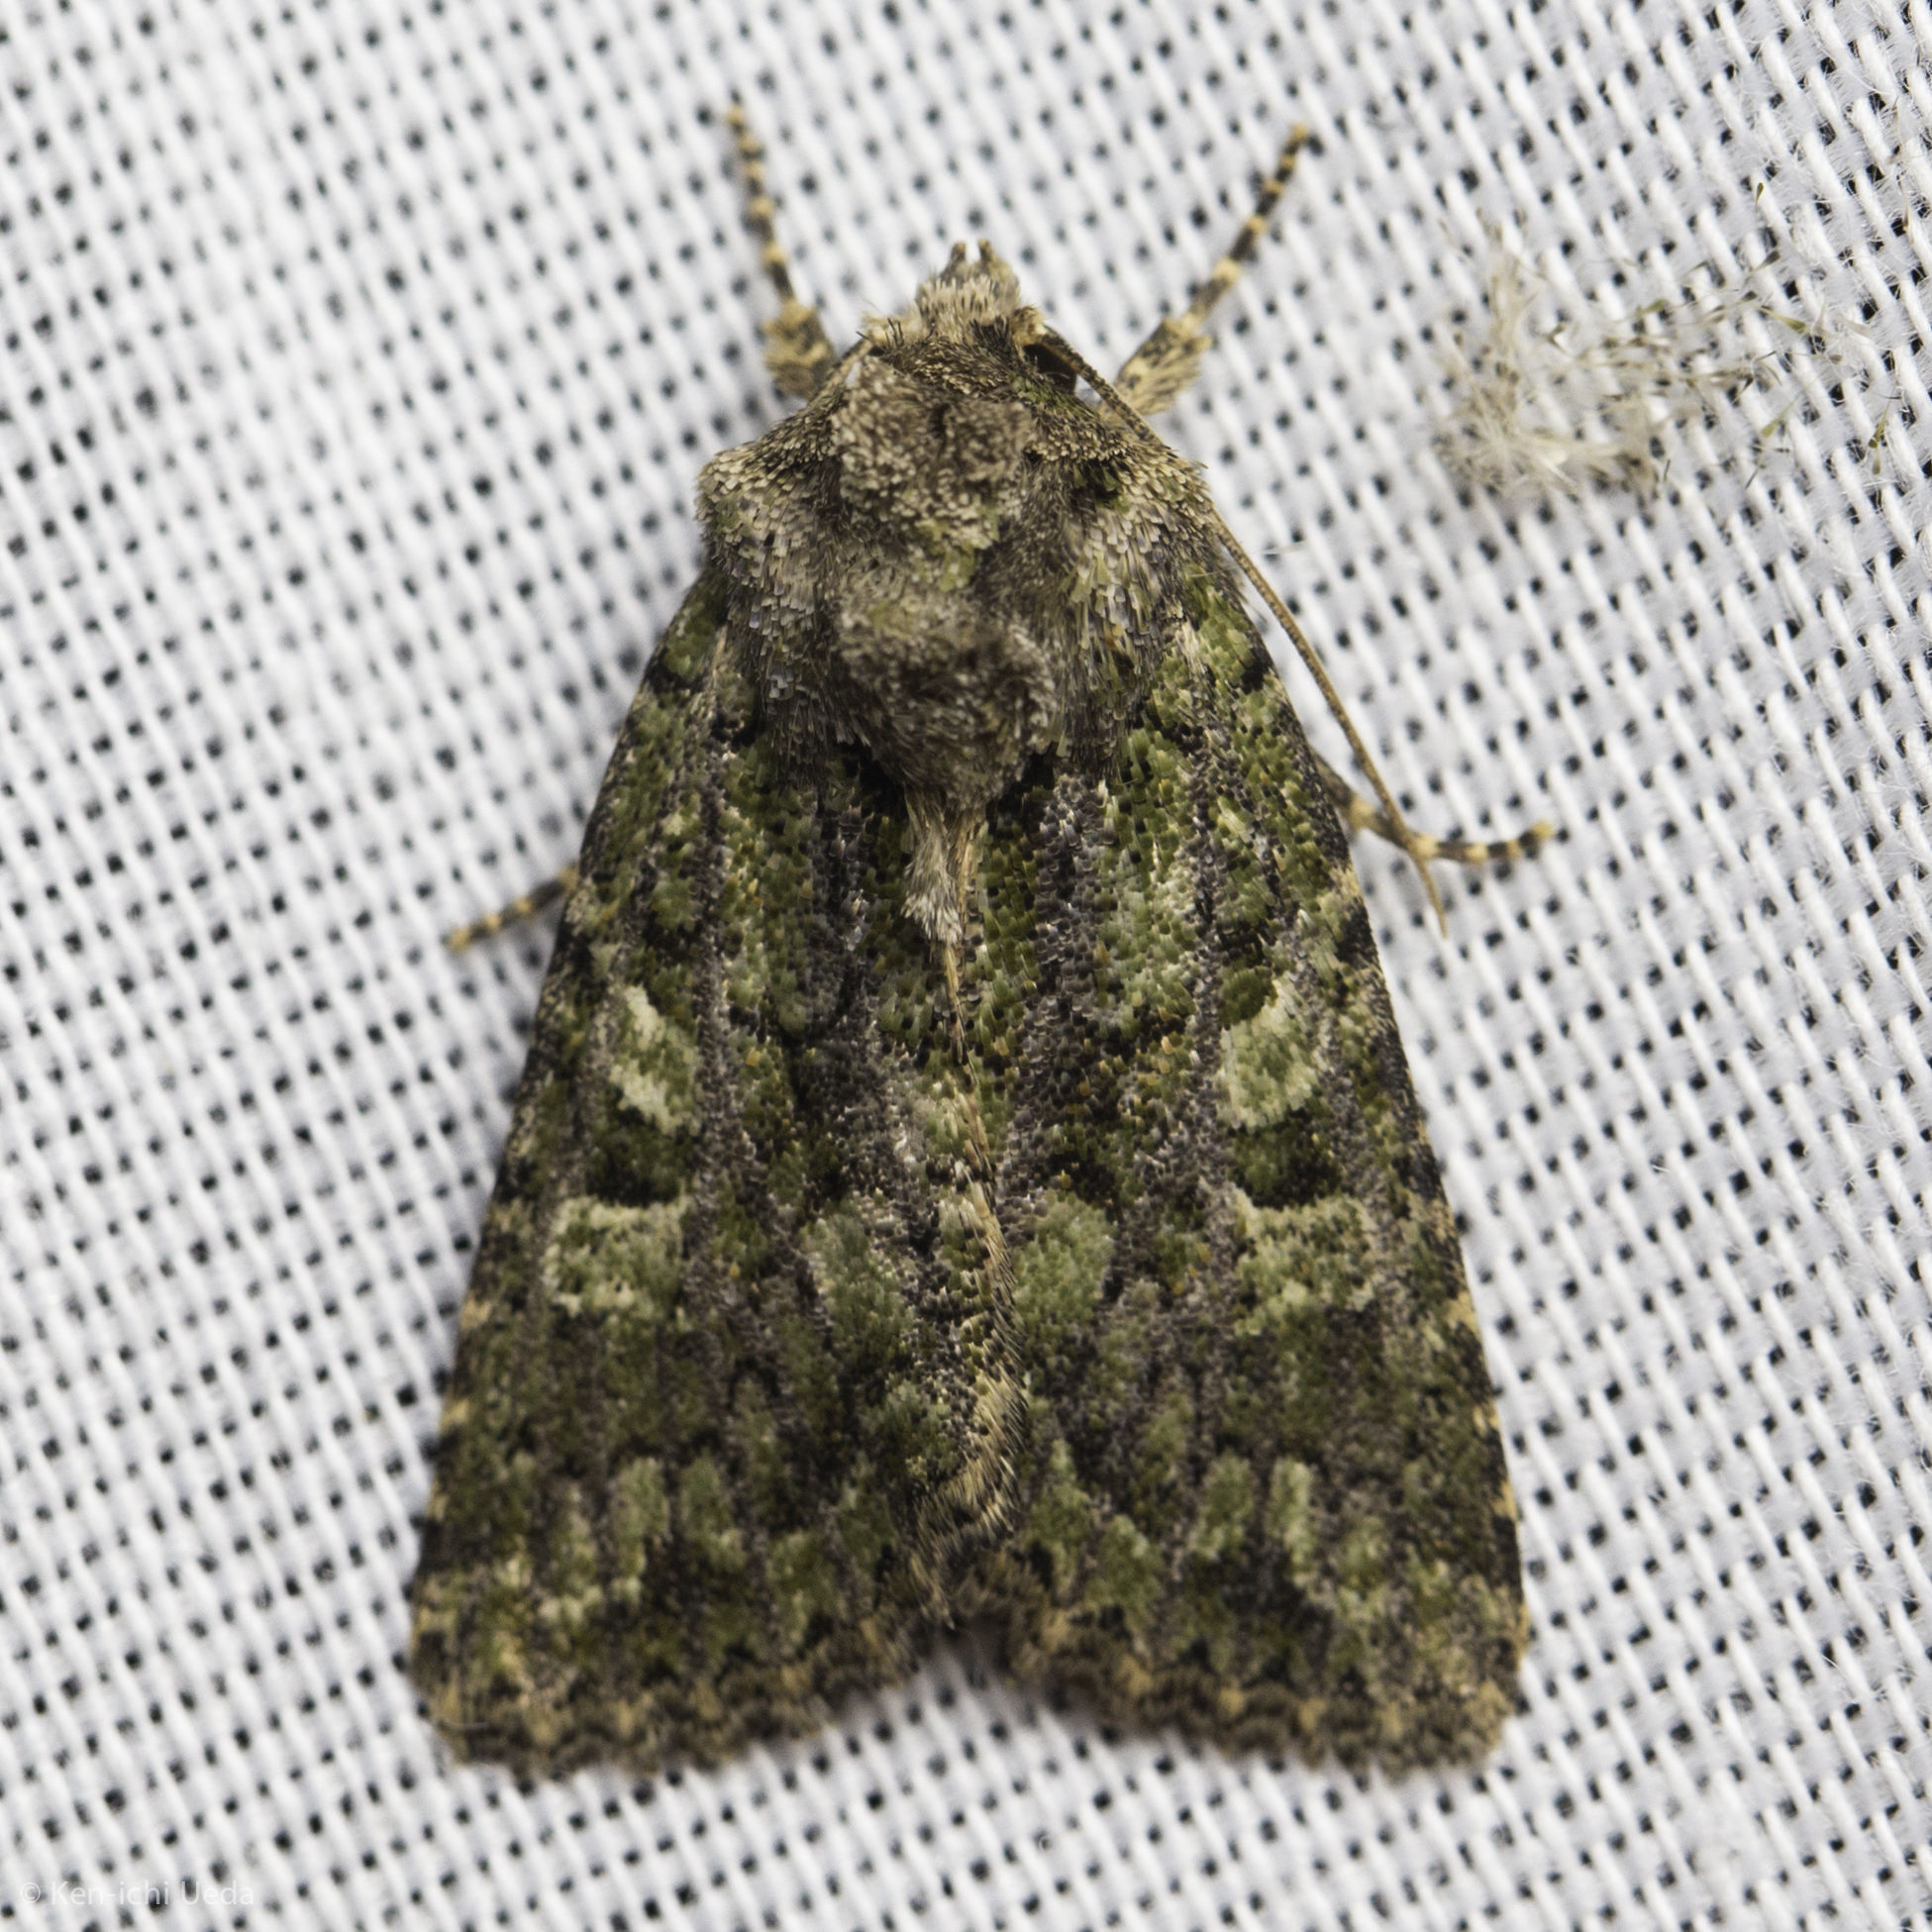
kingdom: Animalia
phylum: Arthropoda
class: Insecta
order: Lepidoptera
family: Noctuidae
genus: Aseptis
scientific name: Aseptis marina
